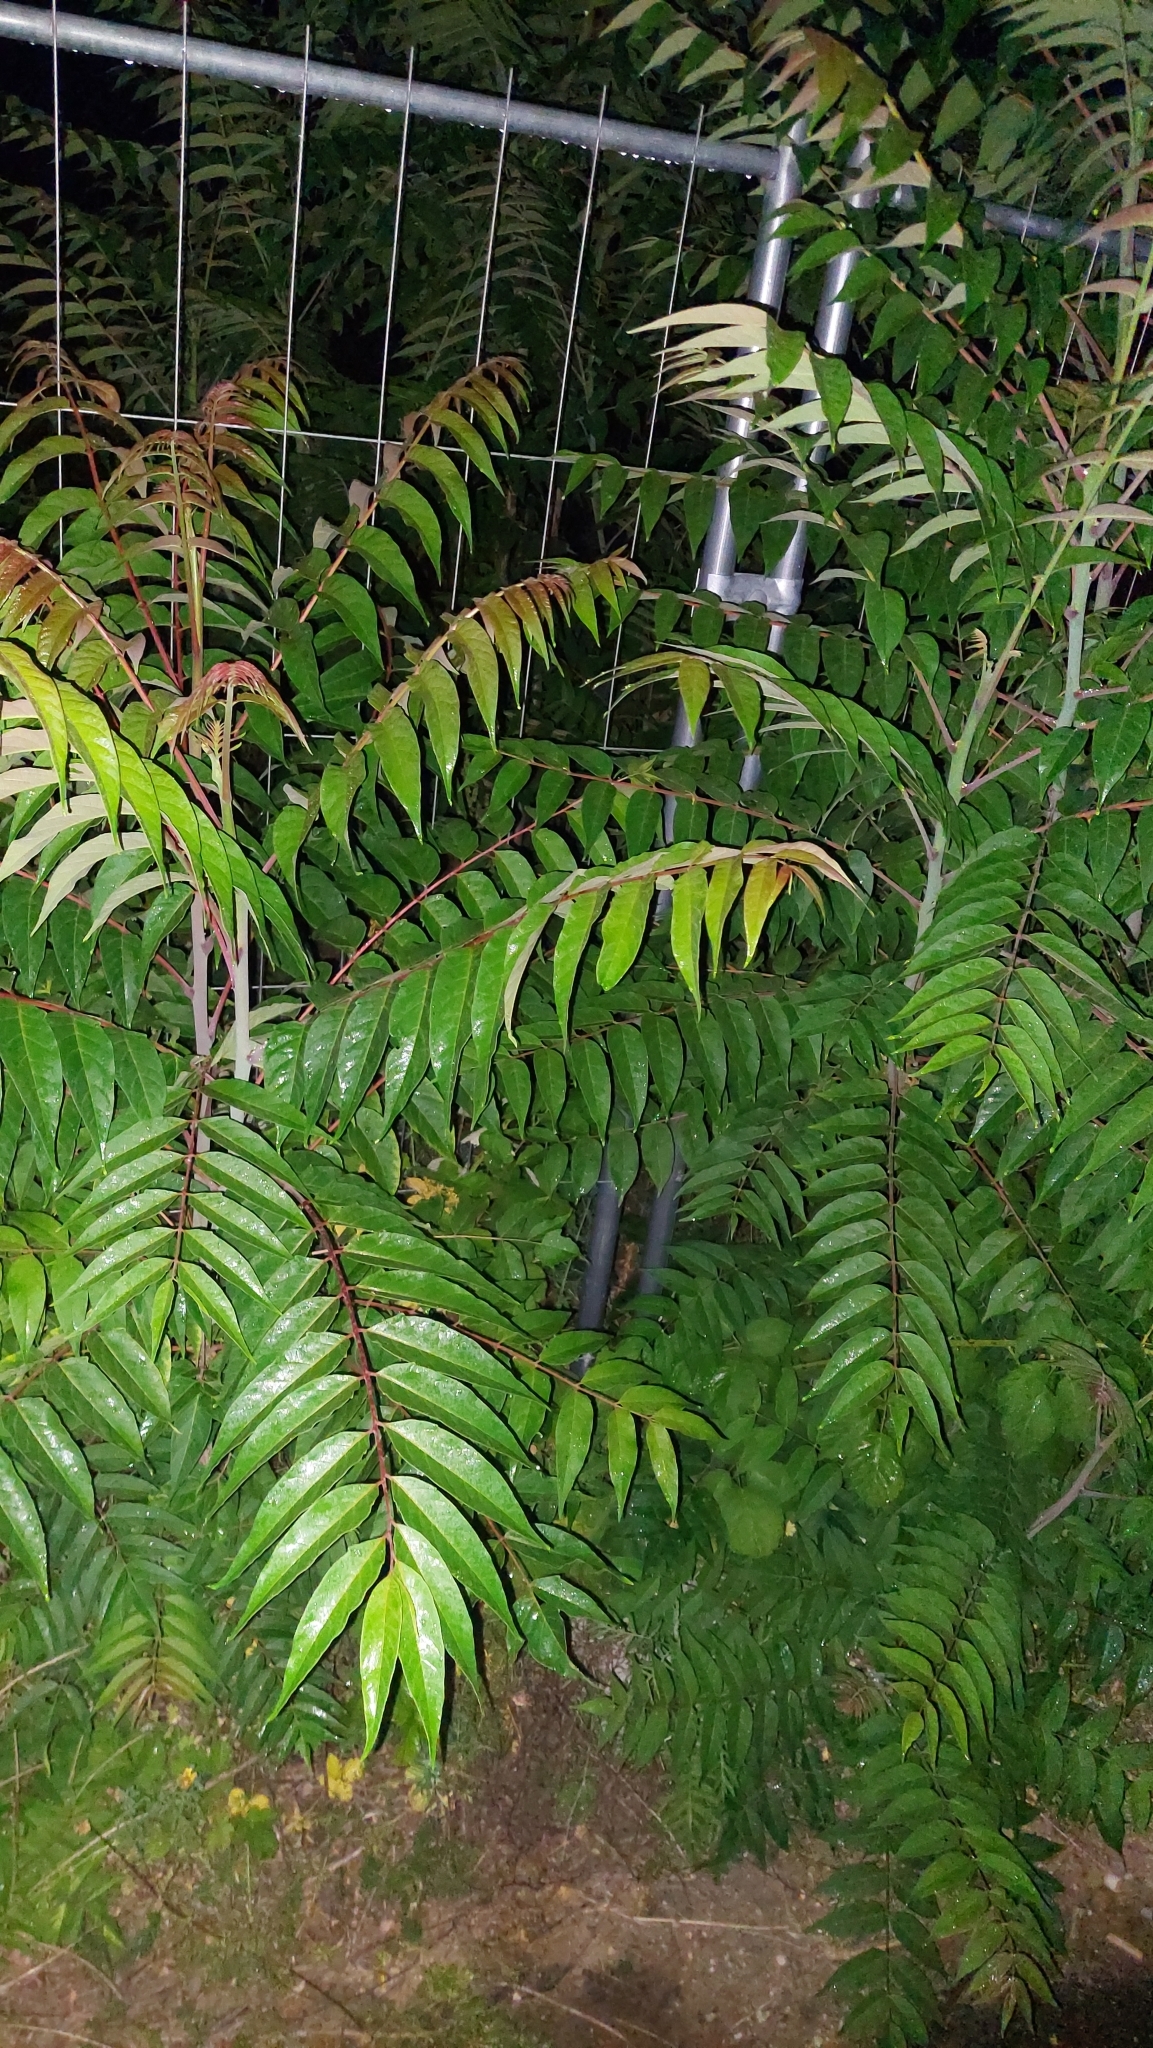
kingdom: Plantae
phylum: Tracheophyta
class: Magnoliopsida
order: Sapindales
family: Simaroubaceae
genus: Ailanthus
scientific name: Ailanthus altissima
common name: Tree-of-heaven
